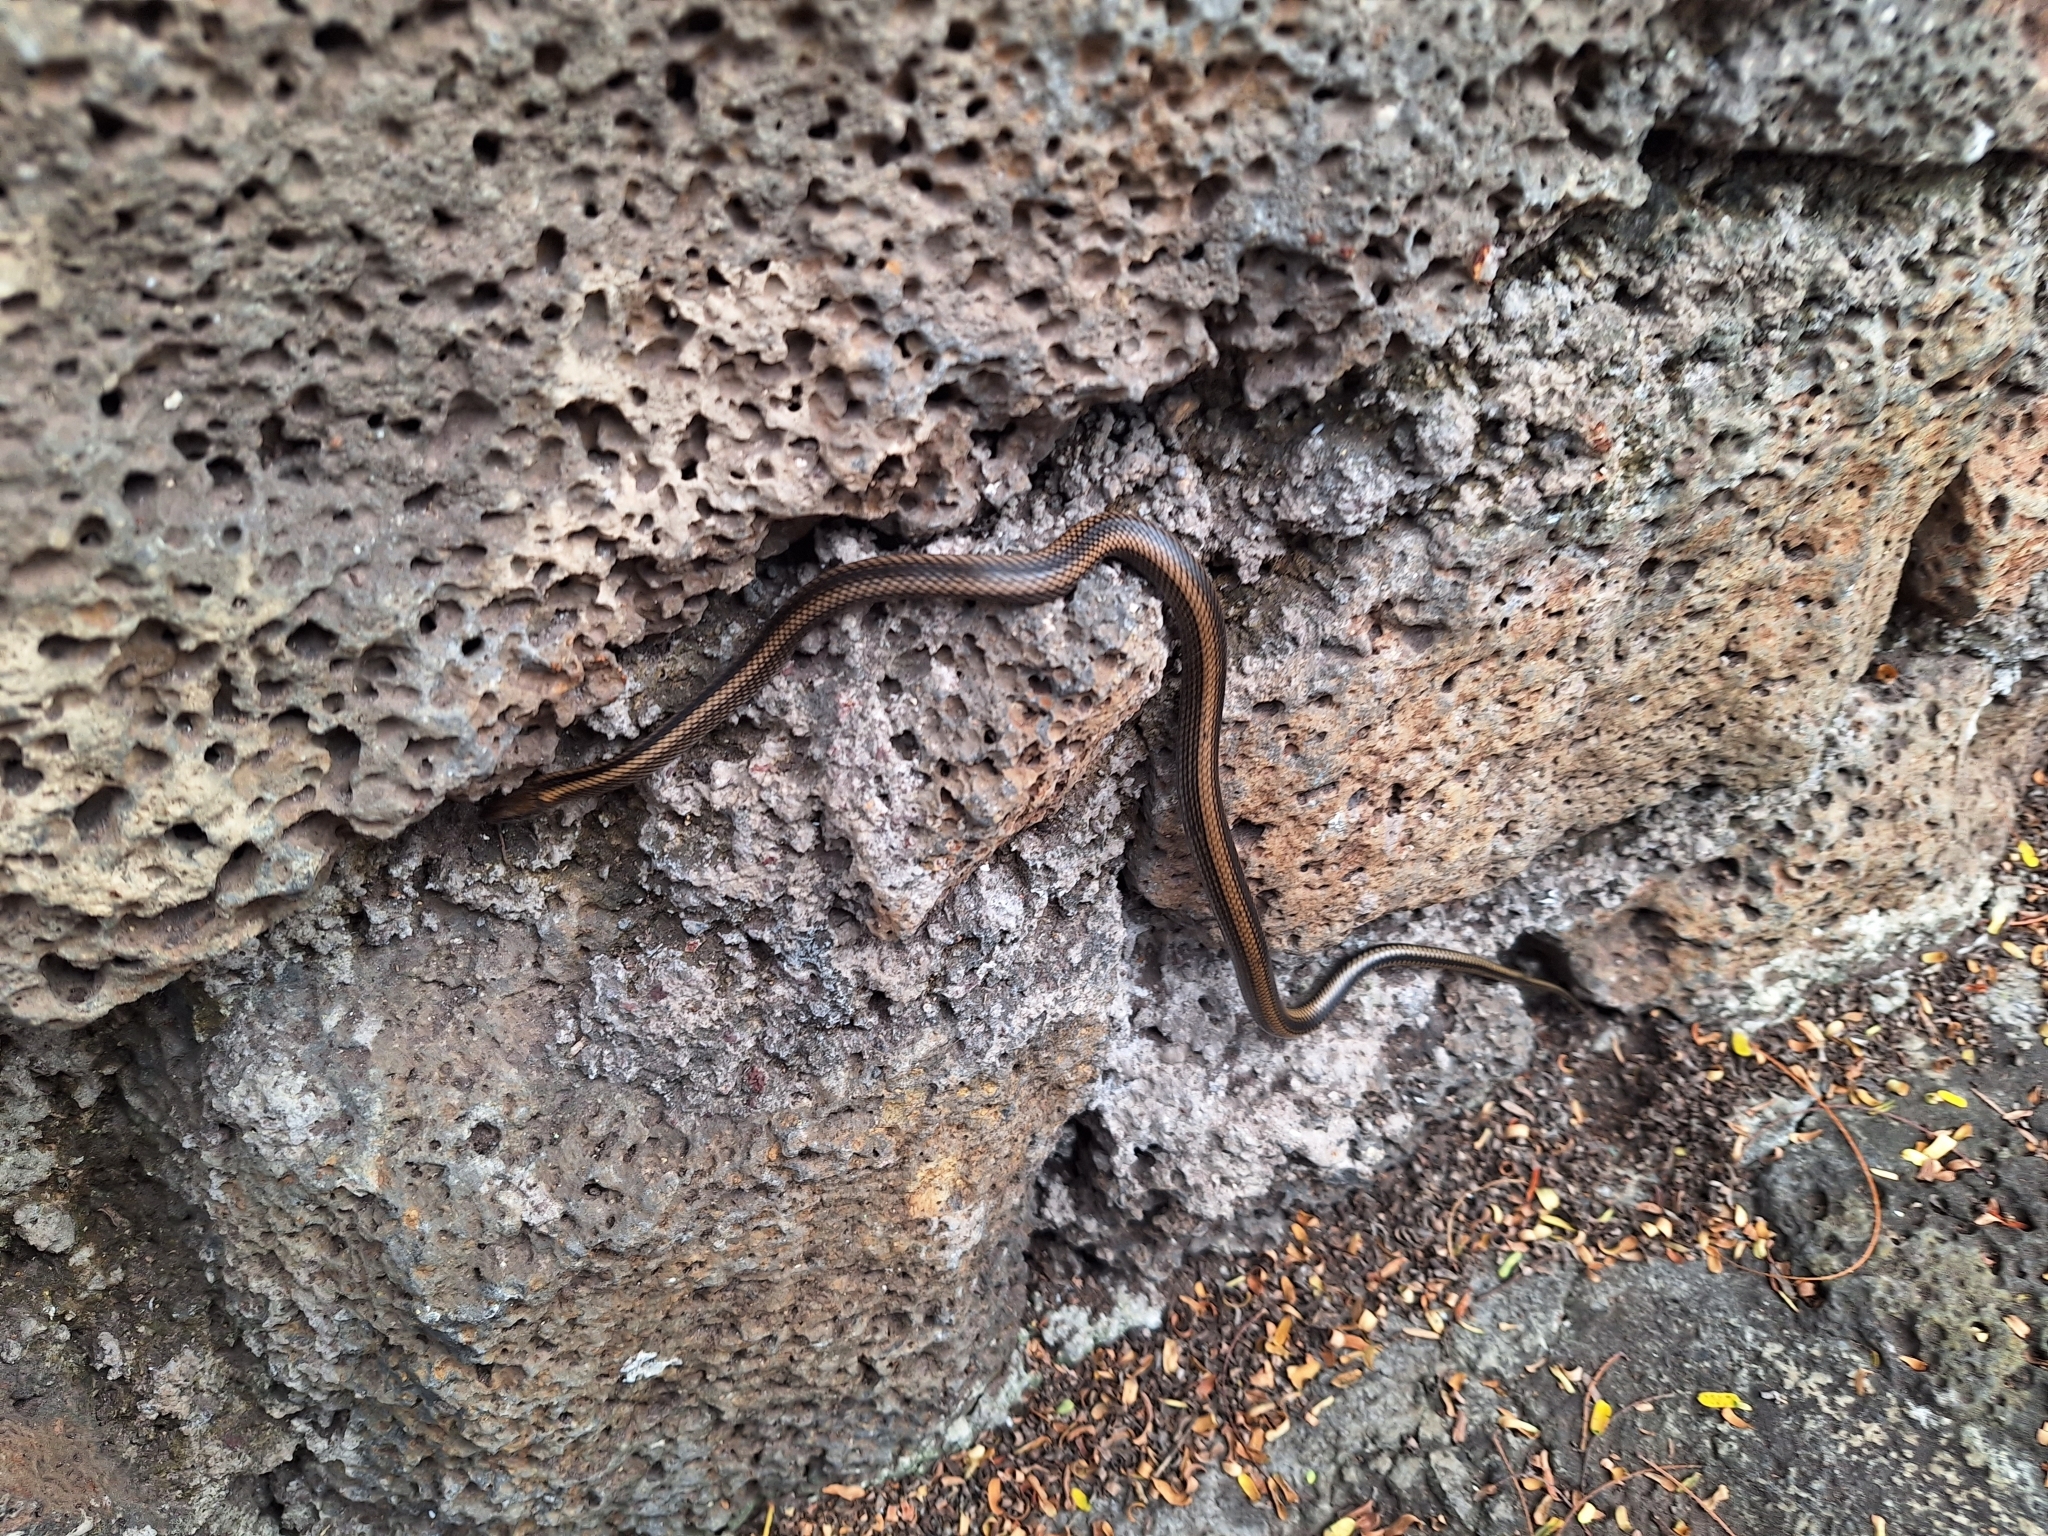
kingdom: Animalia
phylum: Chordata
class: Squamata
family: Colubridae
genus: Pseudalsophis
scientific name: Pseudalsophis steindachneri
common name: Striped galapagos snake
